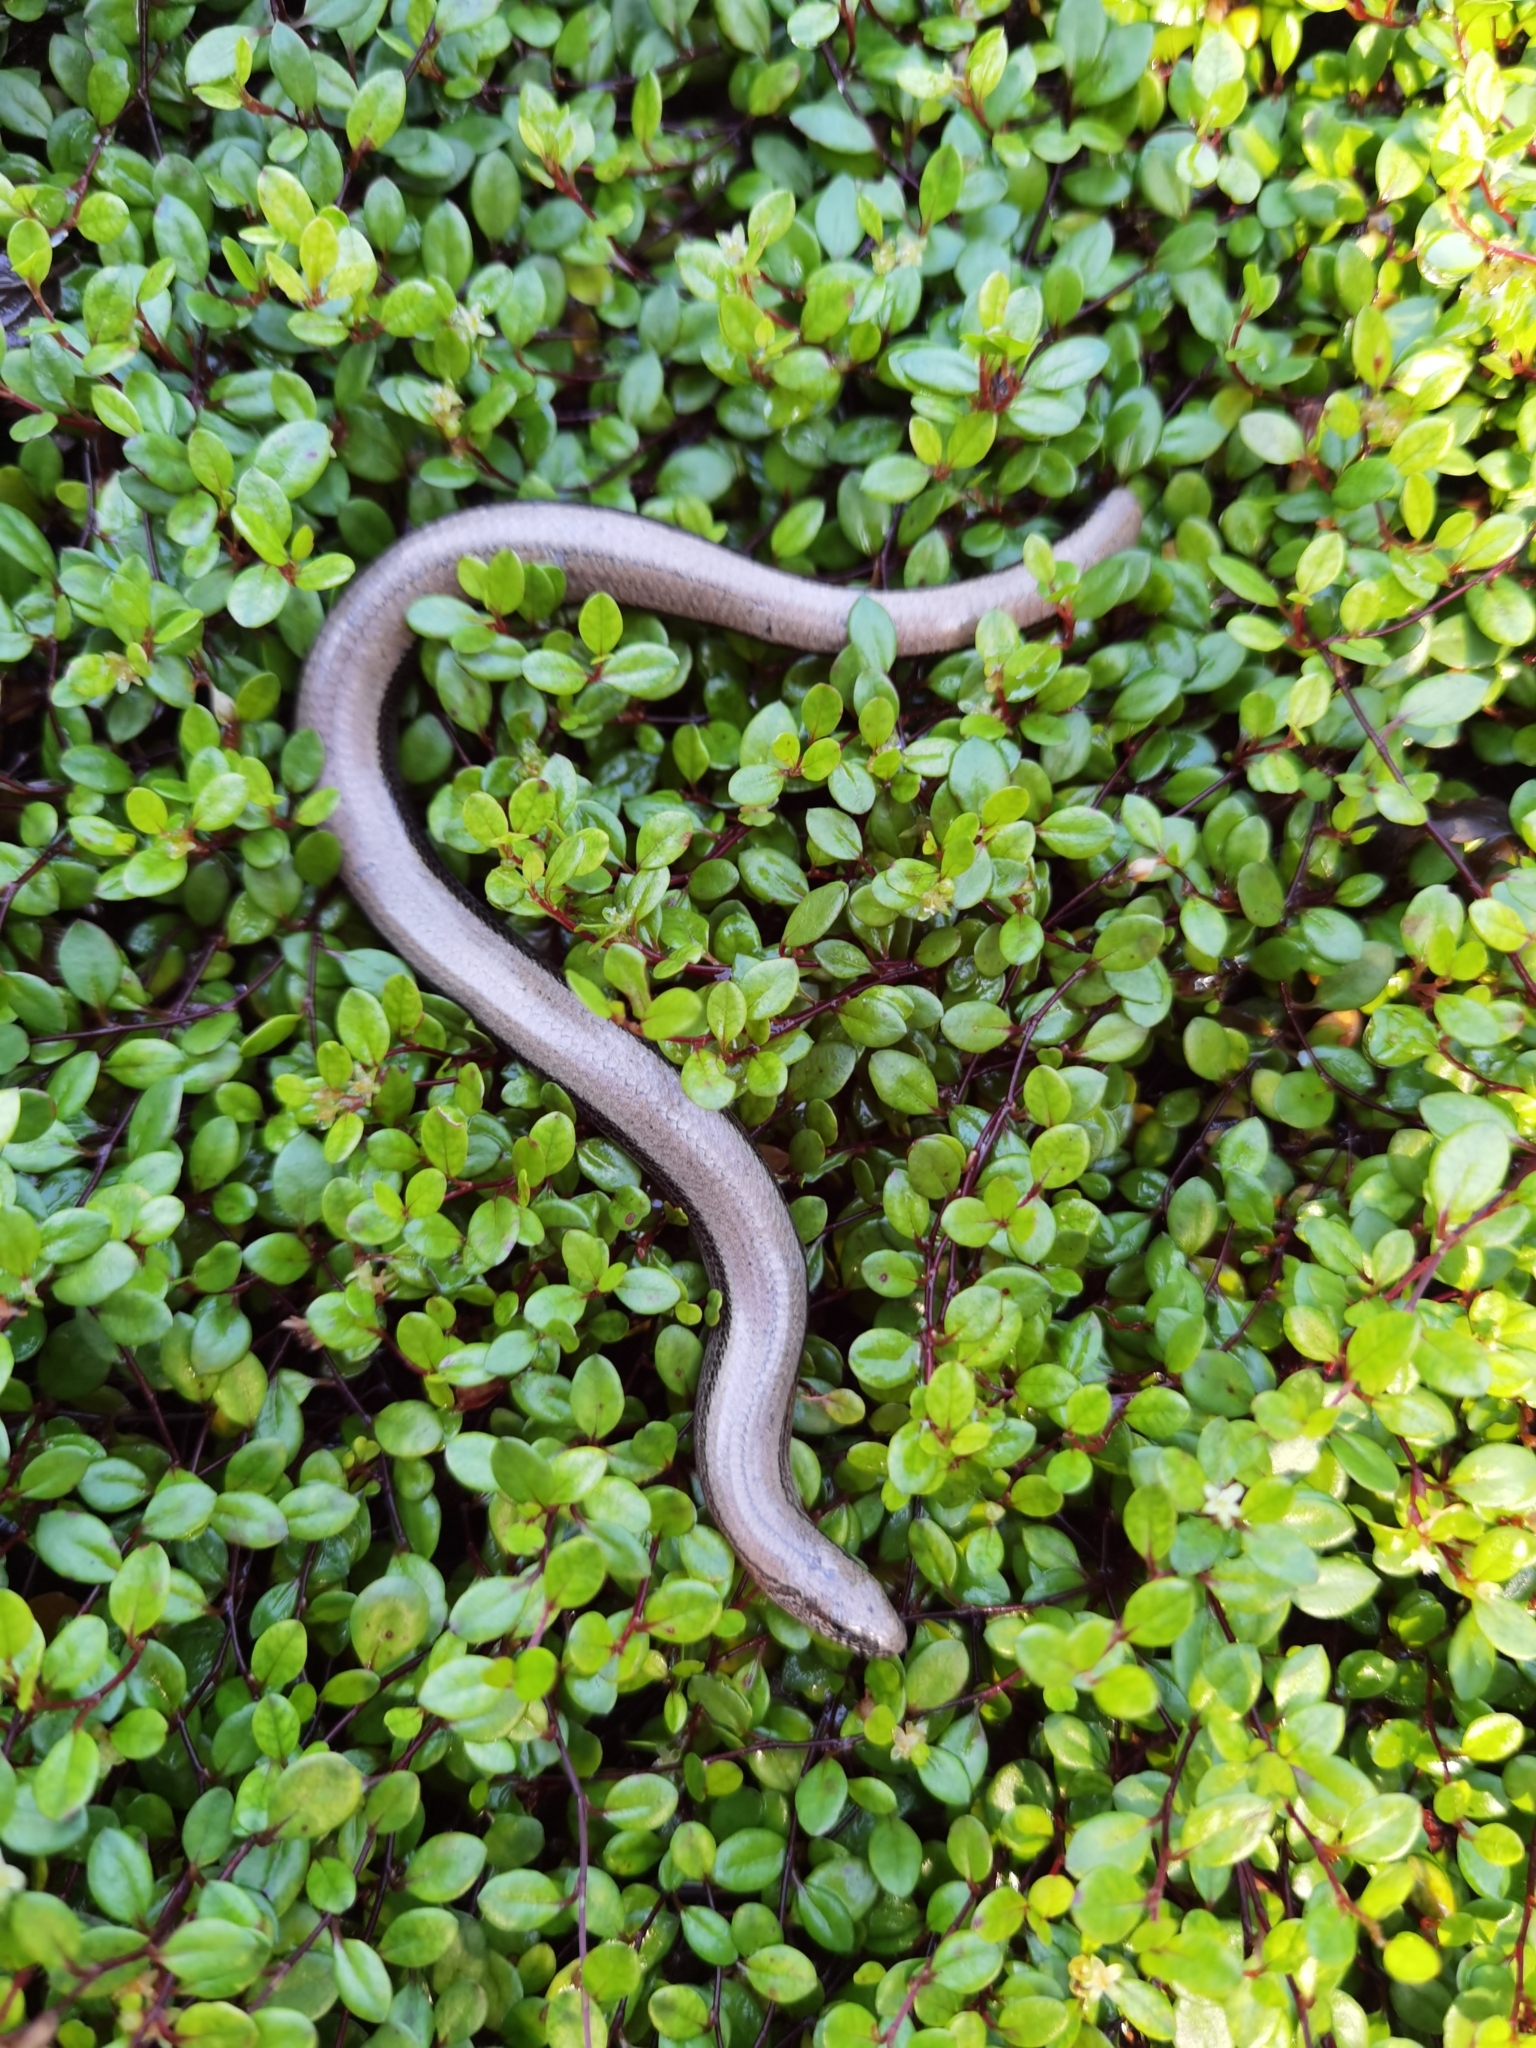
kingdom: Animalia
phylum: Chordata
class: Squamata
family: Anguidae
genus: Anguis
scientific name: Anguis fragilis
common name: Slow worm
